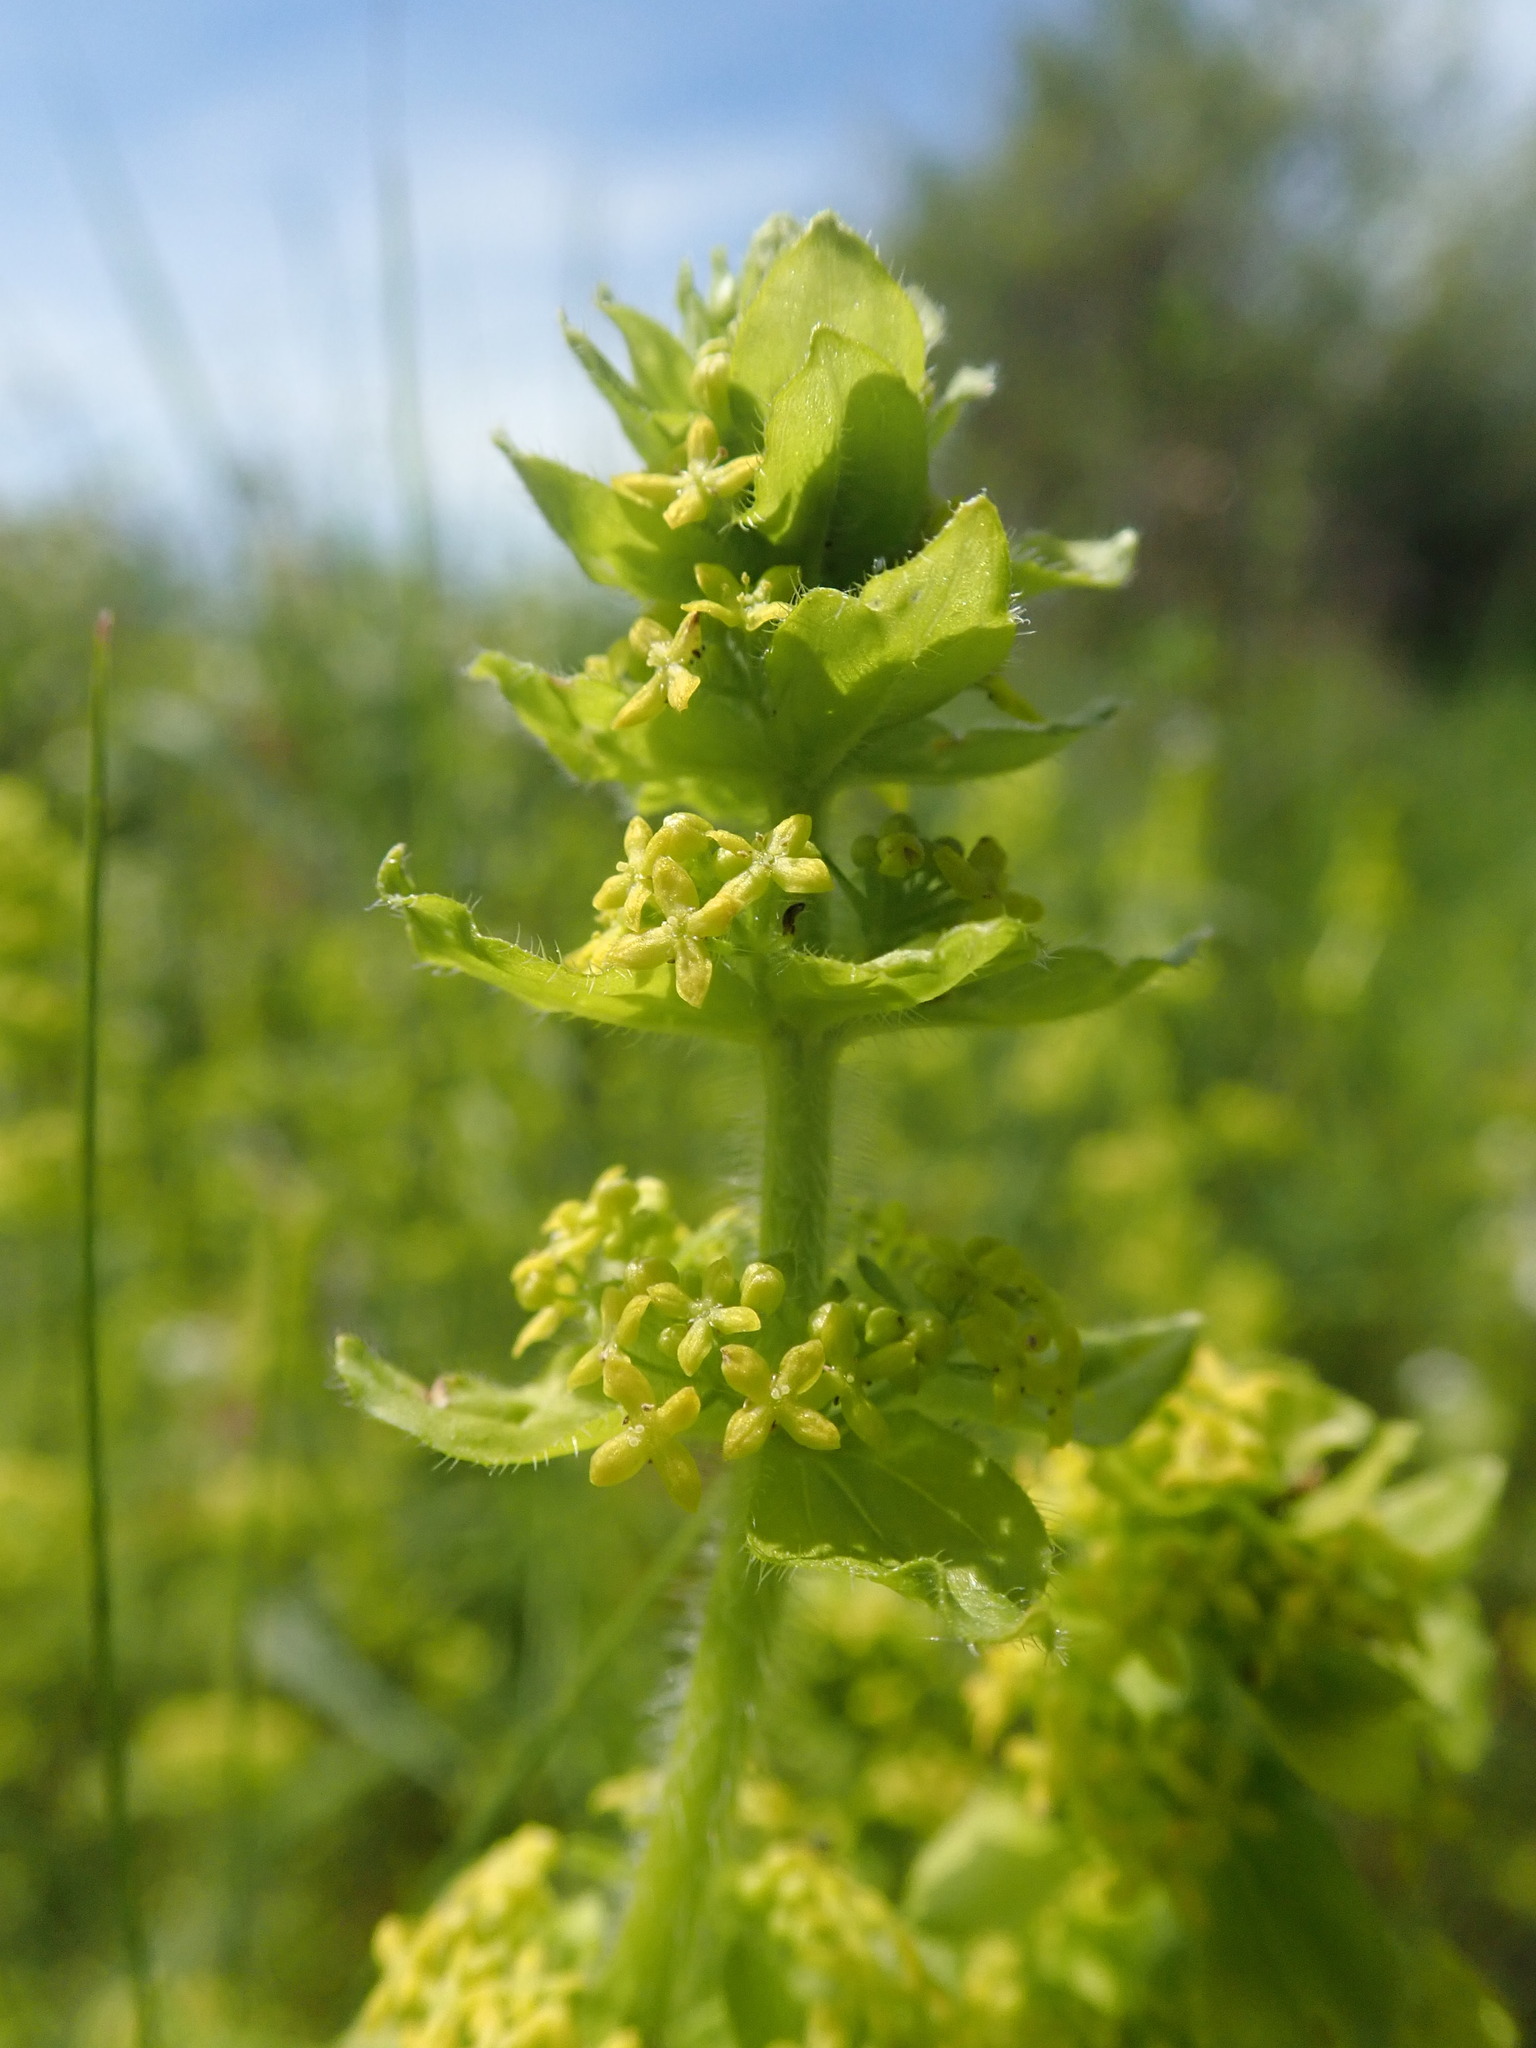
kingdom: Plantae
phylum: Tracheophyta
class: Magnoliopsida
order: Gentianales
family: Rubiaceae
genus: Cruciata
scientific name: Cruciata laevipes
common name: Crosswort
